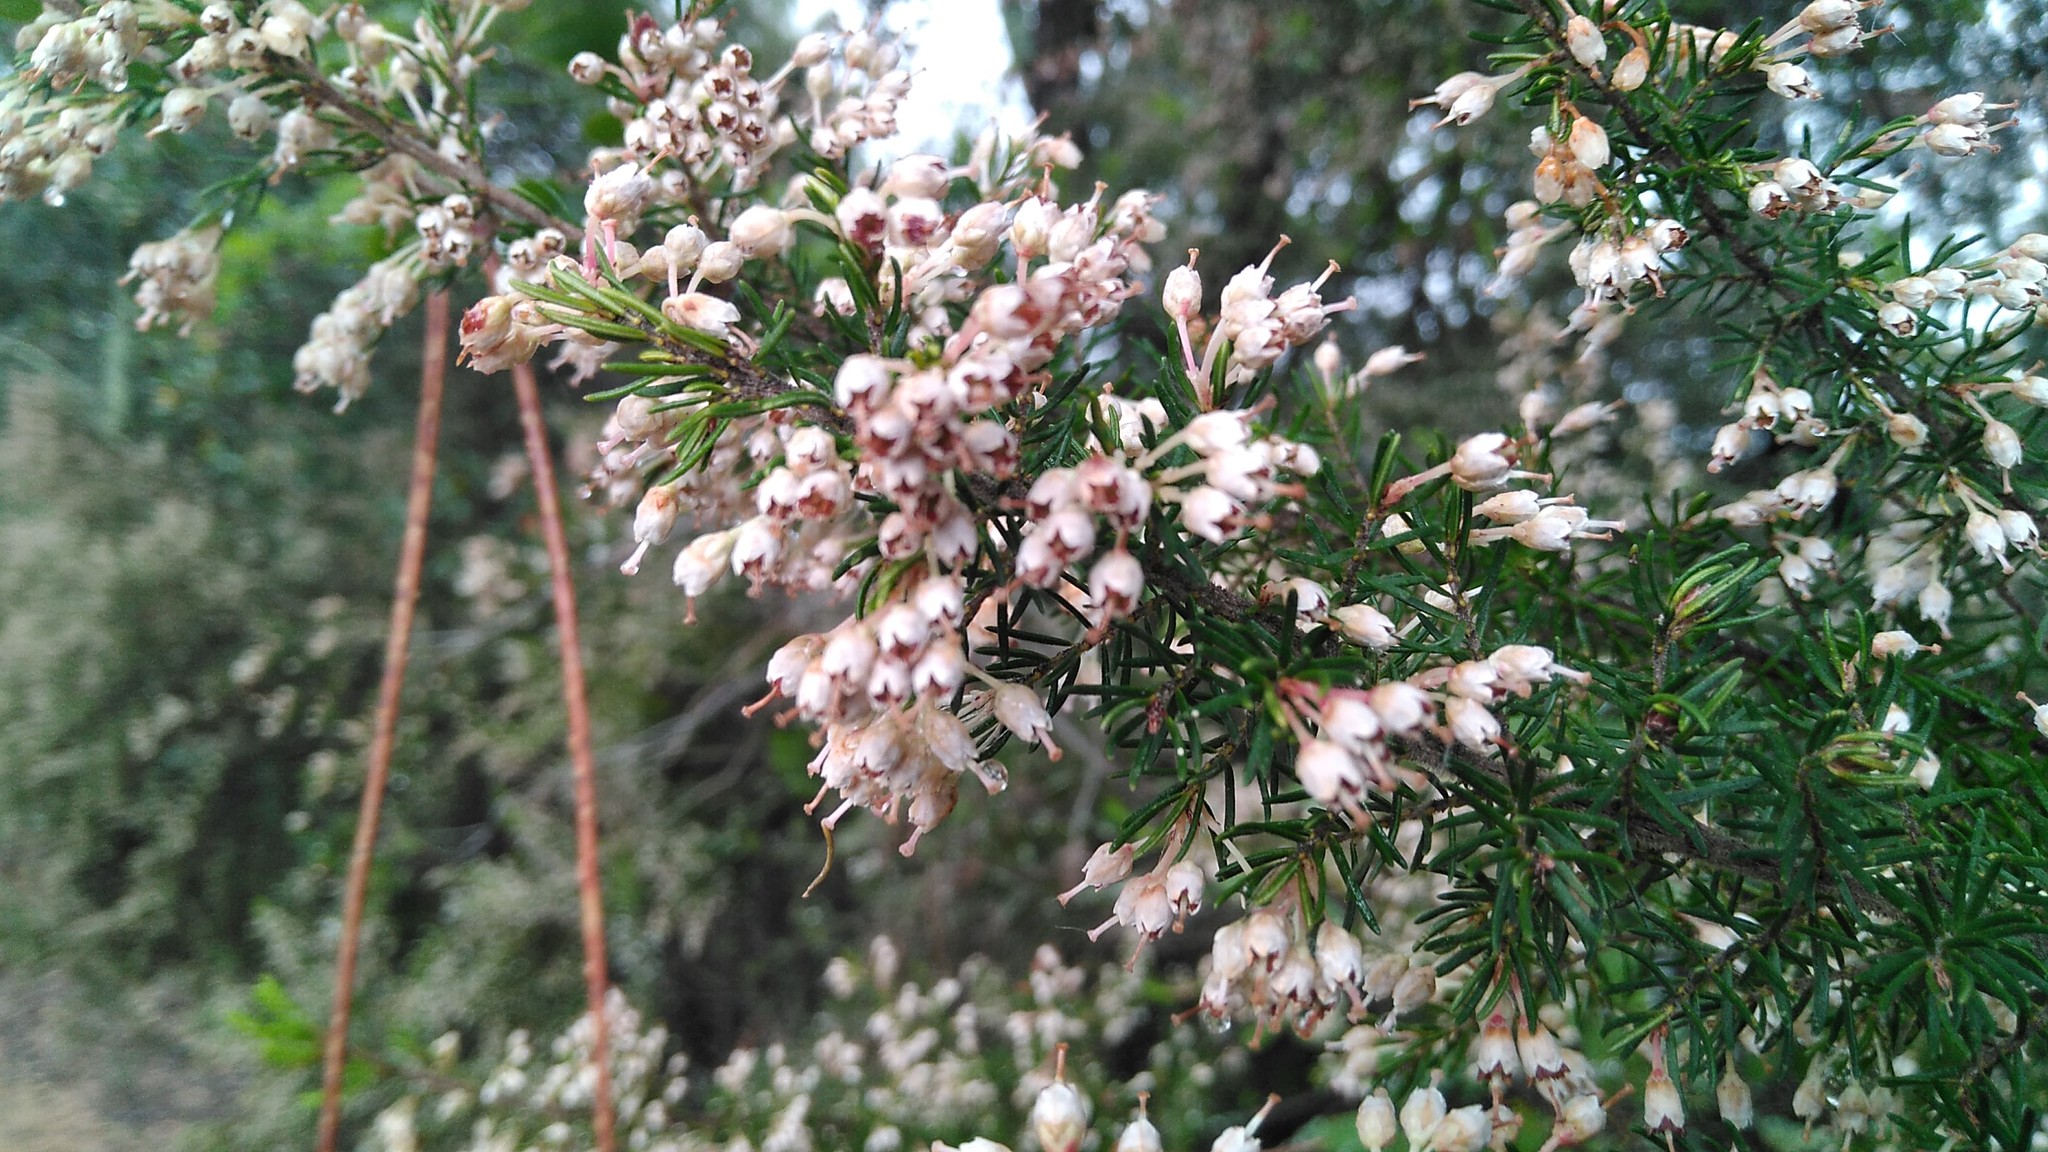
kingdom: Plantae
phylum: Tracheophyta
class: Magnoliopsida
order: Ericales
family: Ericaceae
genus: Erica
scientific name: Erica arborea
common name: Tree heath
